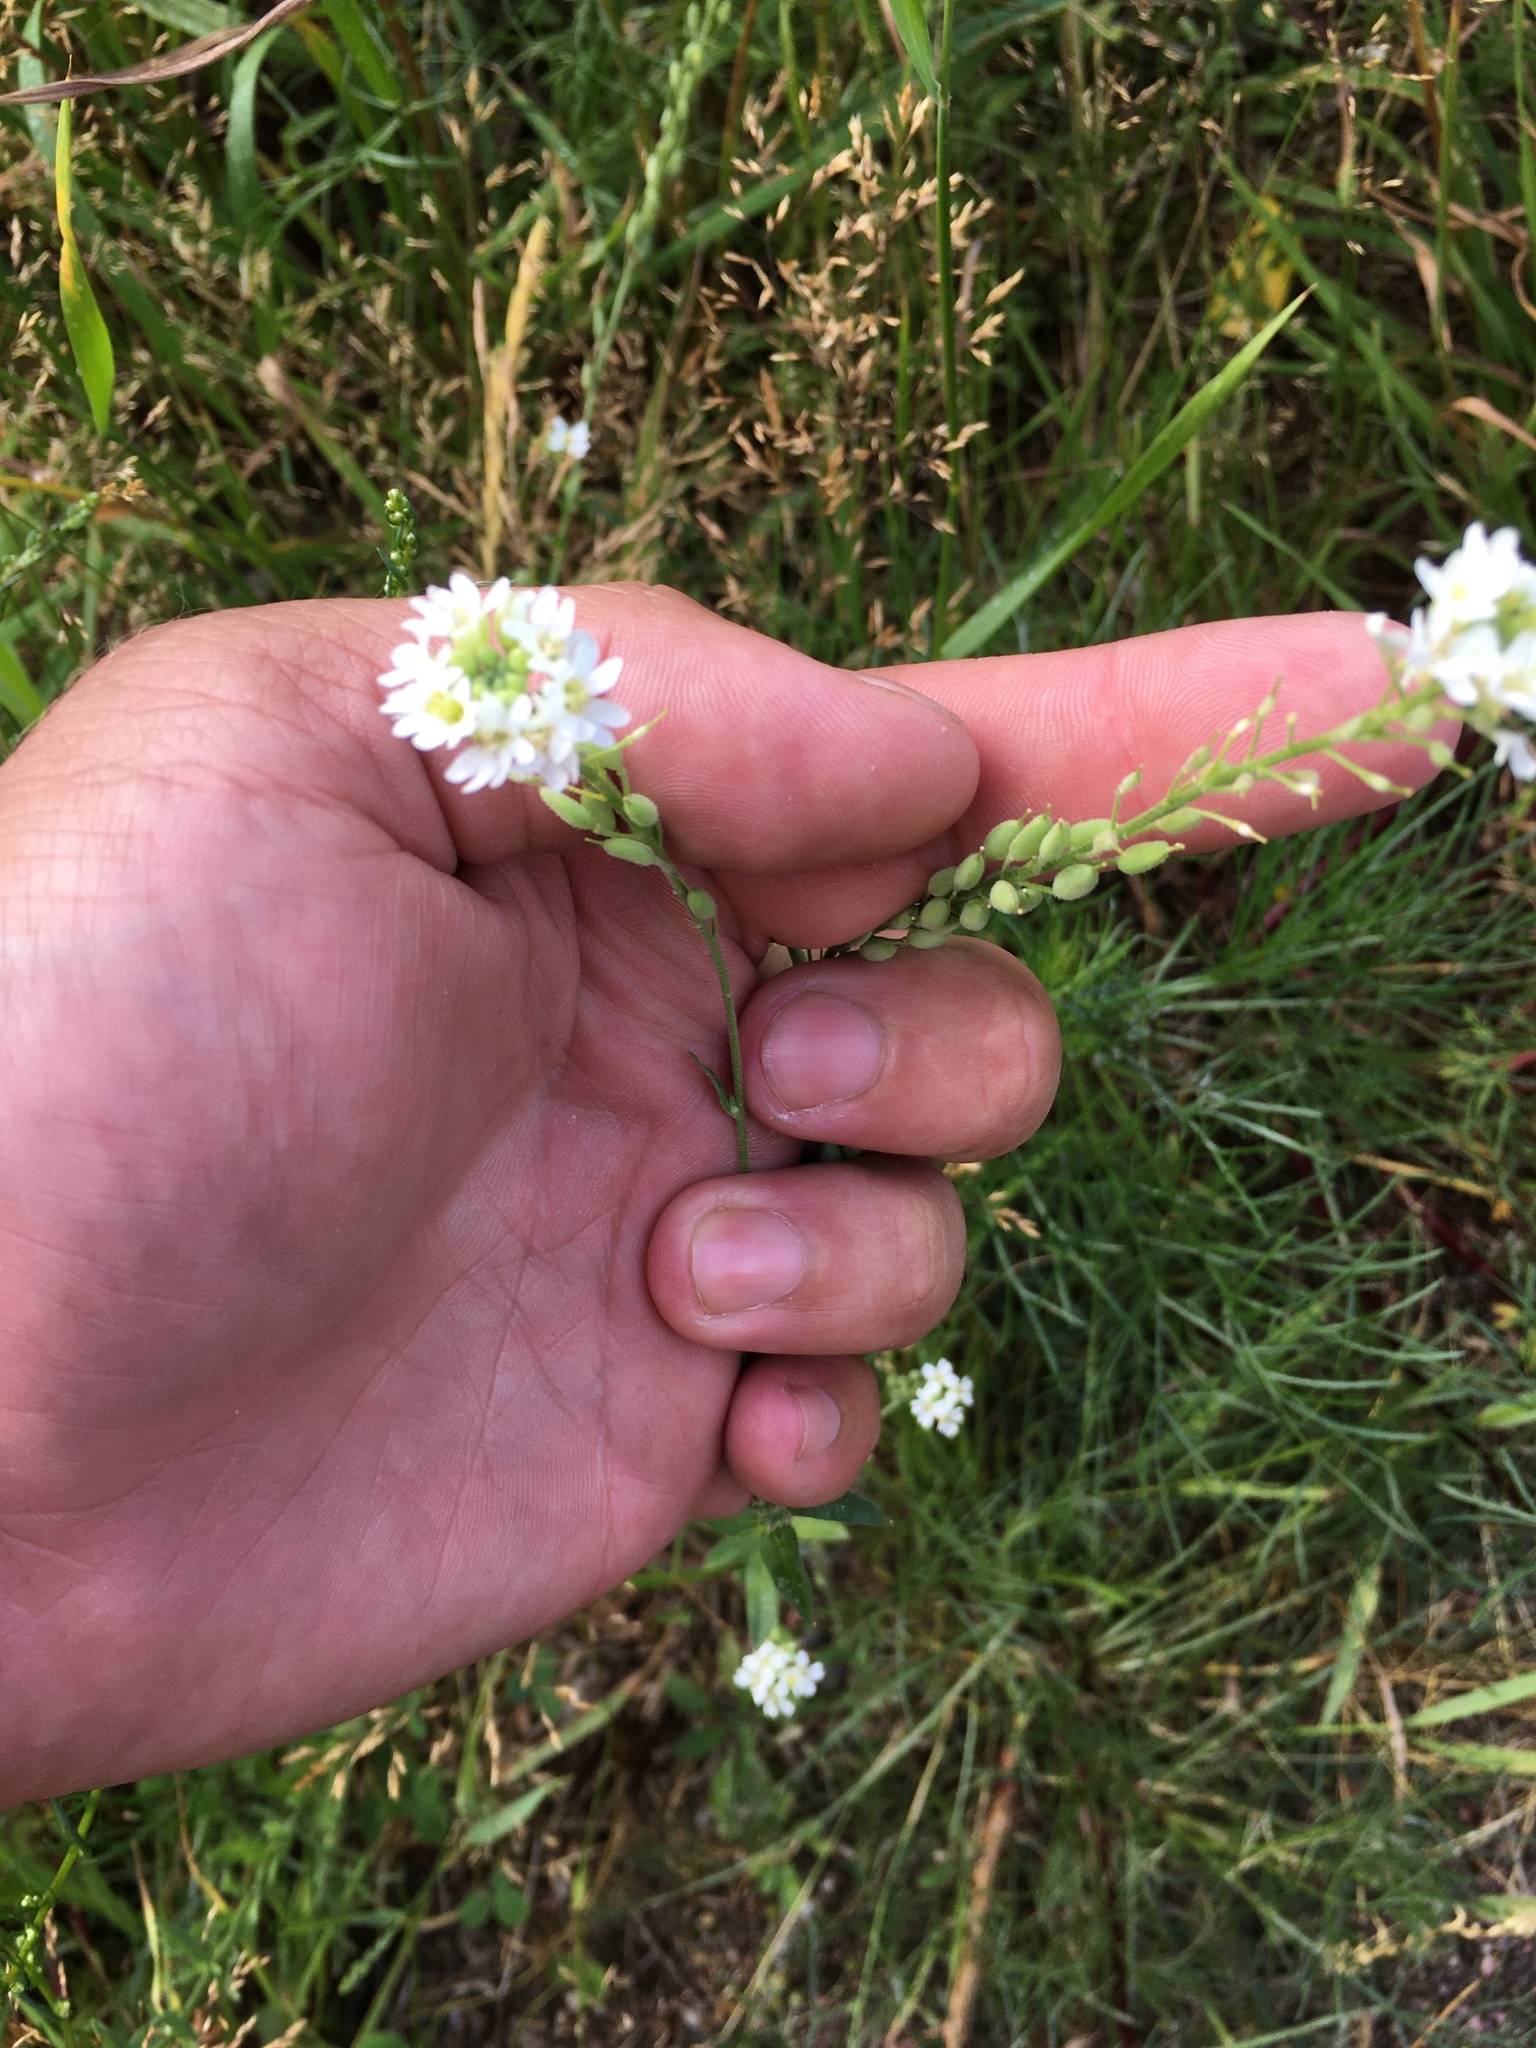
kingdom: Plantae
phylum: Tracheophyta
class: Magnoliopsida
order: Brassicales
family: Brassicaceae
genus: Berteroa
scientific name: Berteroa incana
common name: Hoary alison
